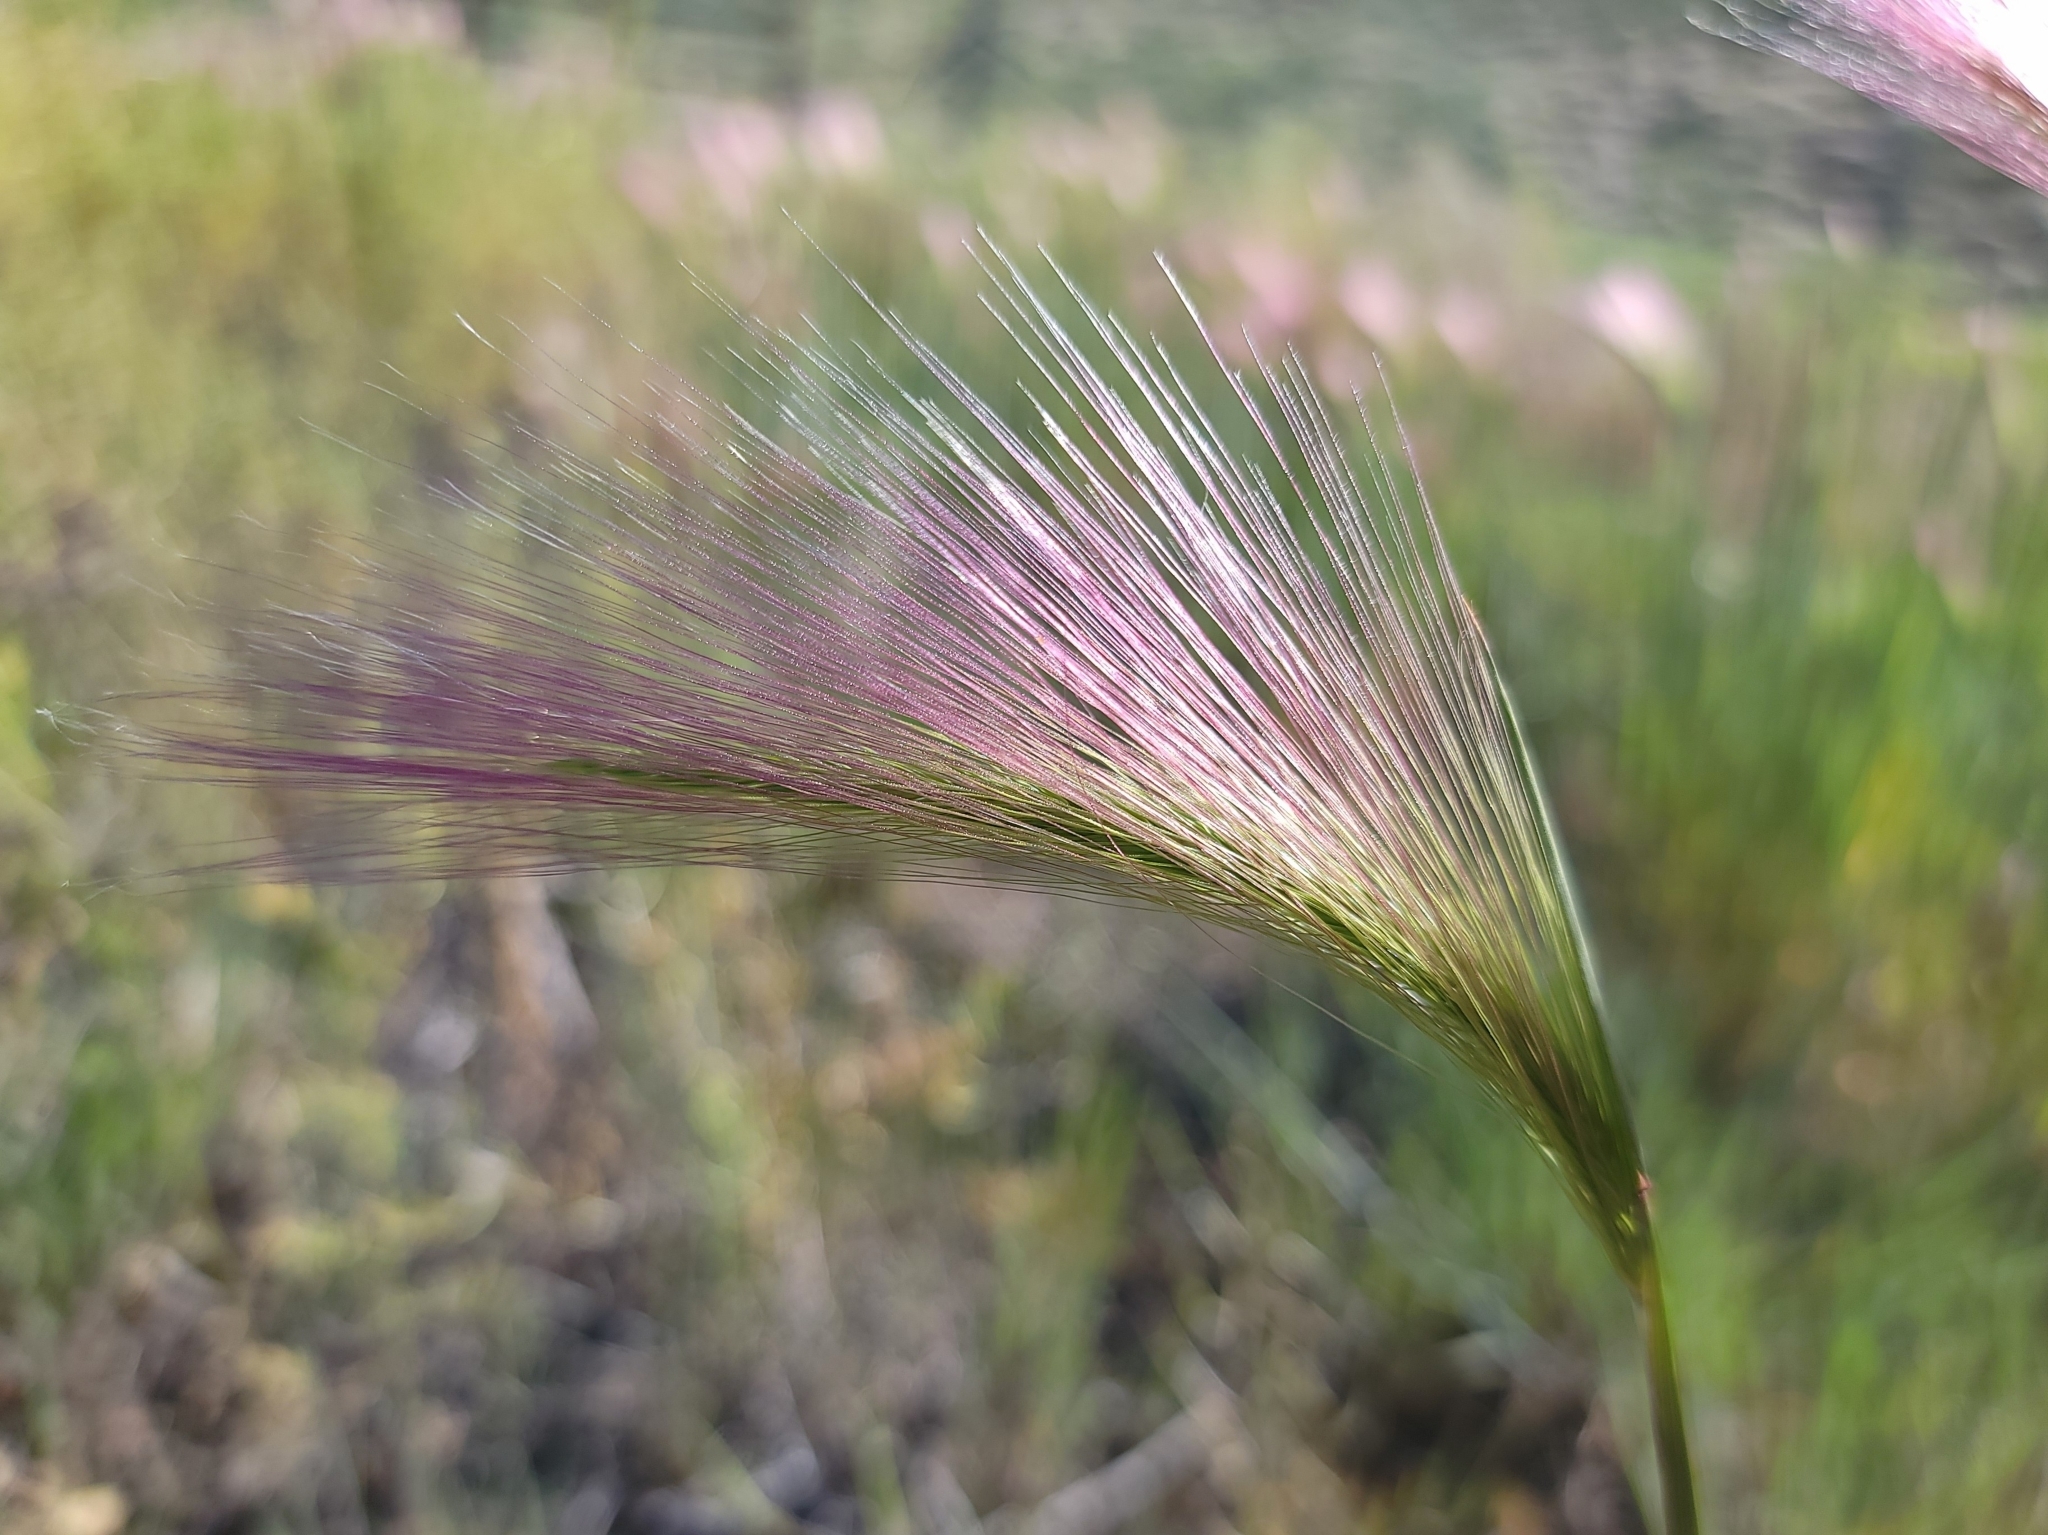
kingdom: Plantae
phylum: Tracheophyta
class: Liliopsida
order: Poales
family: Poaceae
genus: Hordeum
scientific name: Hordeum jubatum
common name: Foxtail barley
